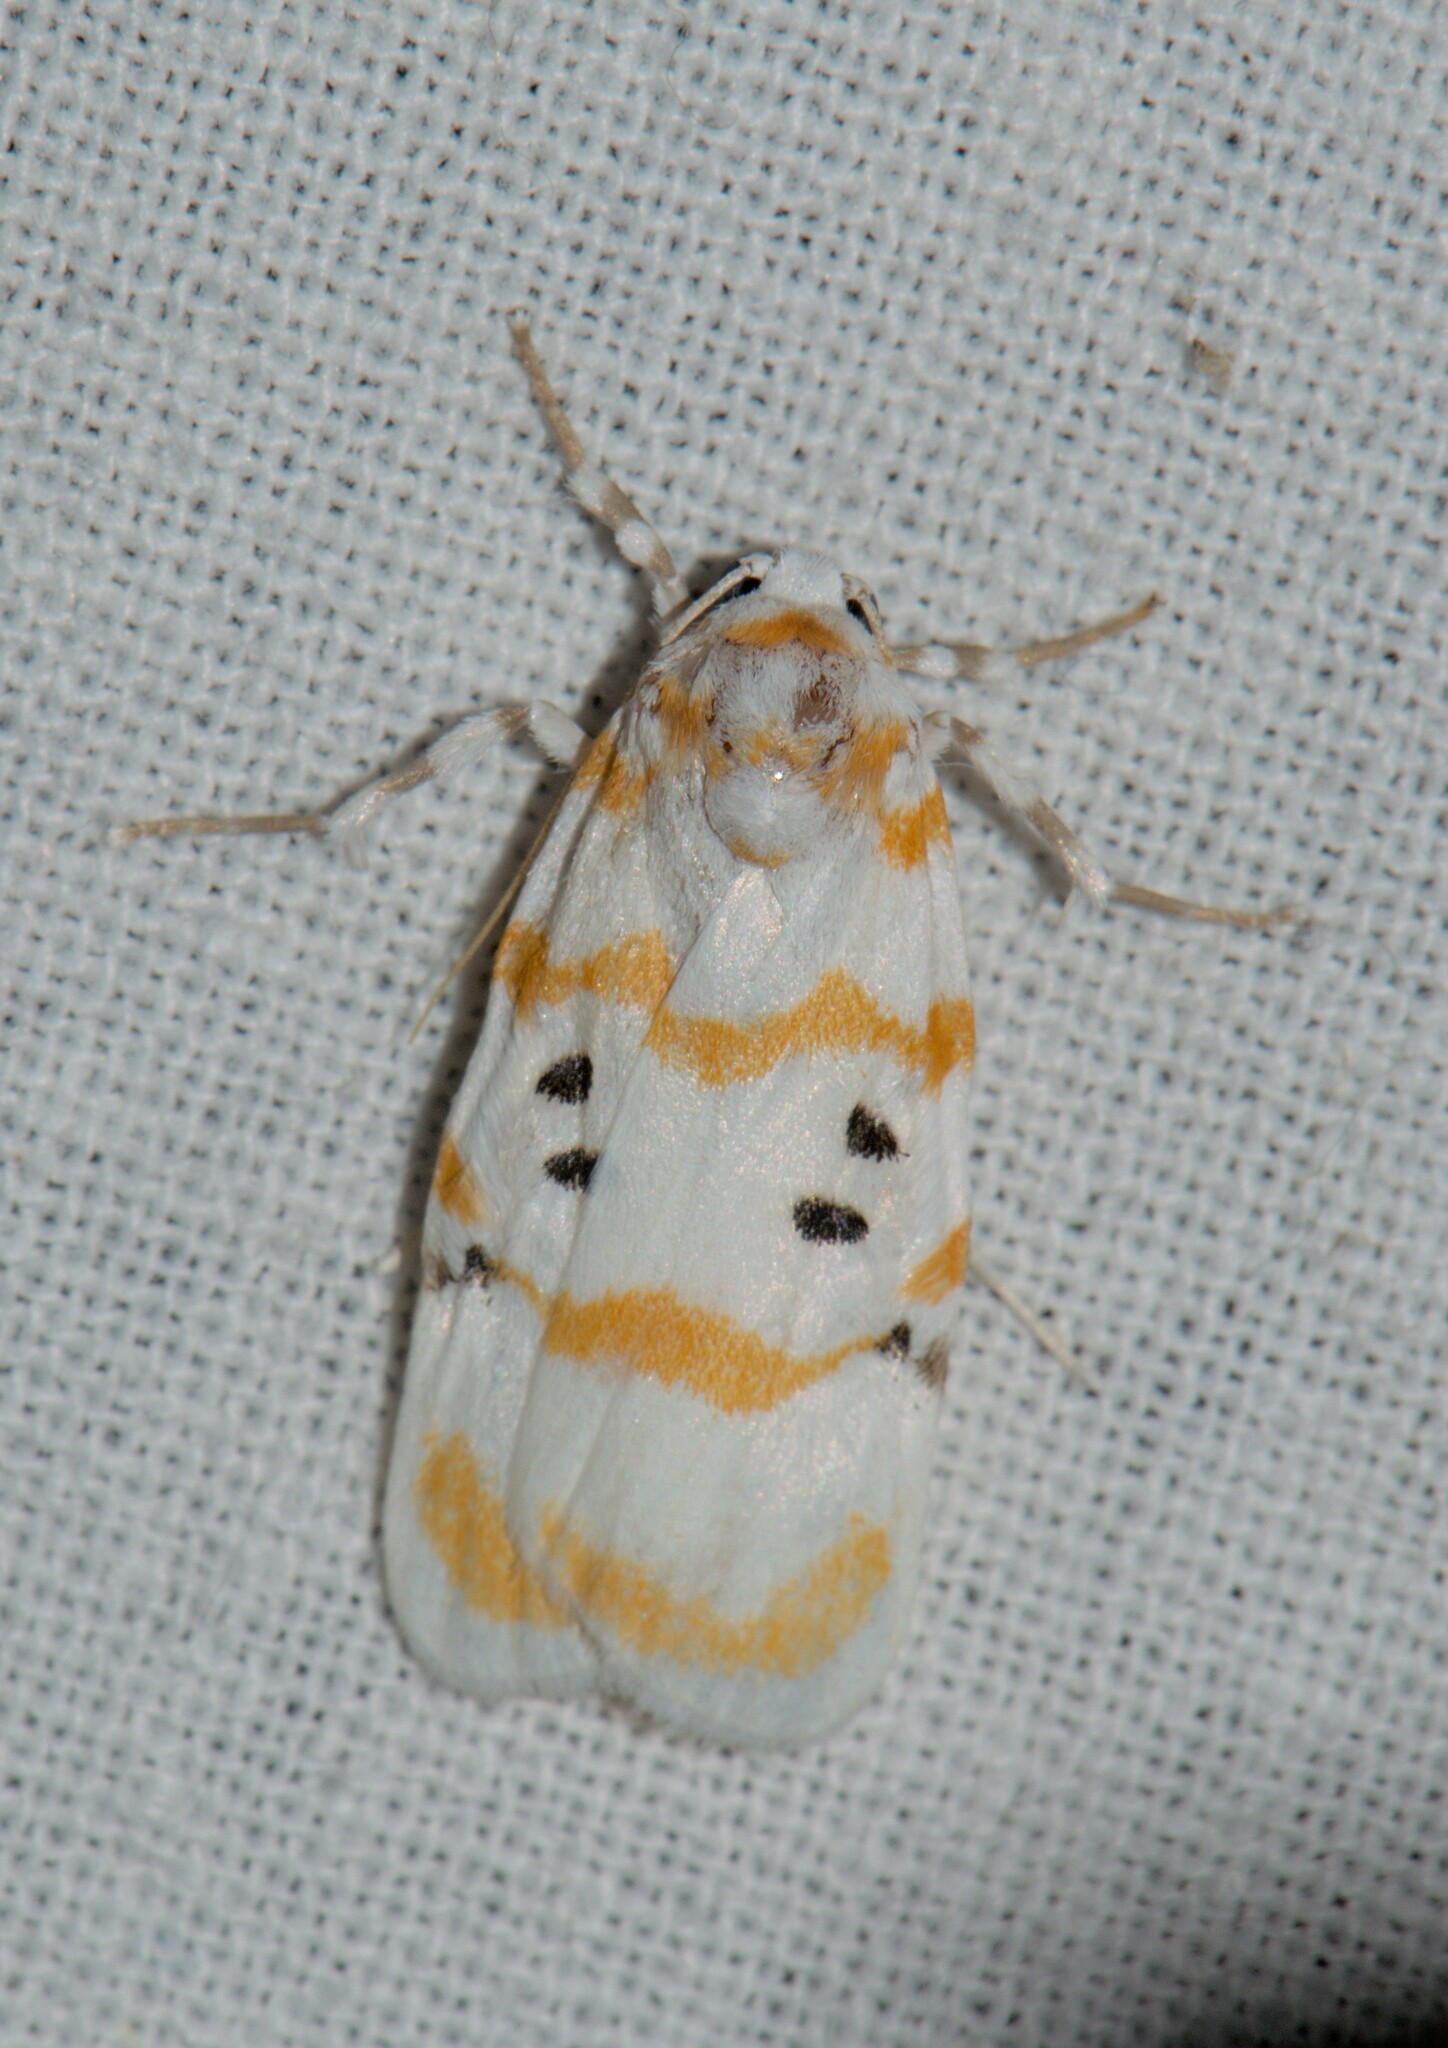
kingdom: Animalia
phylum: Arthropoda
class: Insecta
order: Lepidoptera
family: Erebidae
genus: Cyana
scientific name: Cyana chrysopeleia
